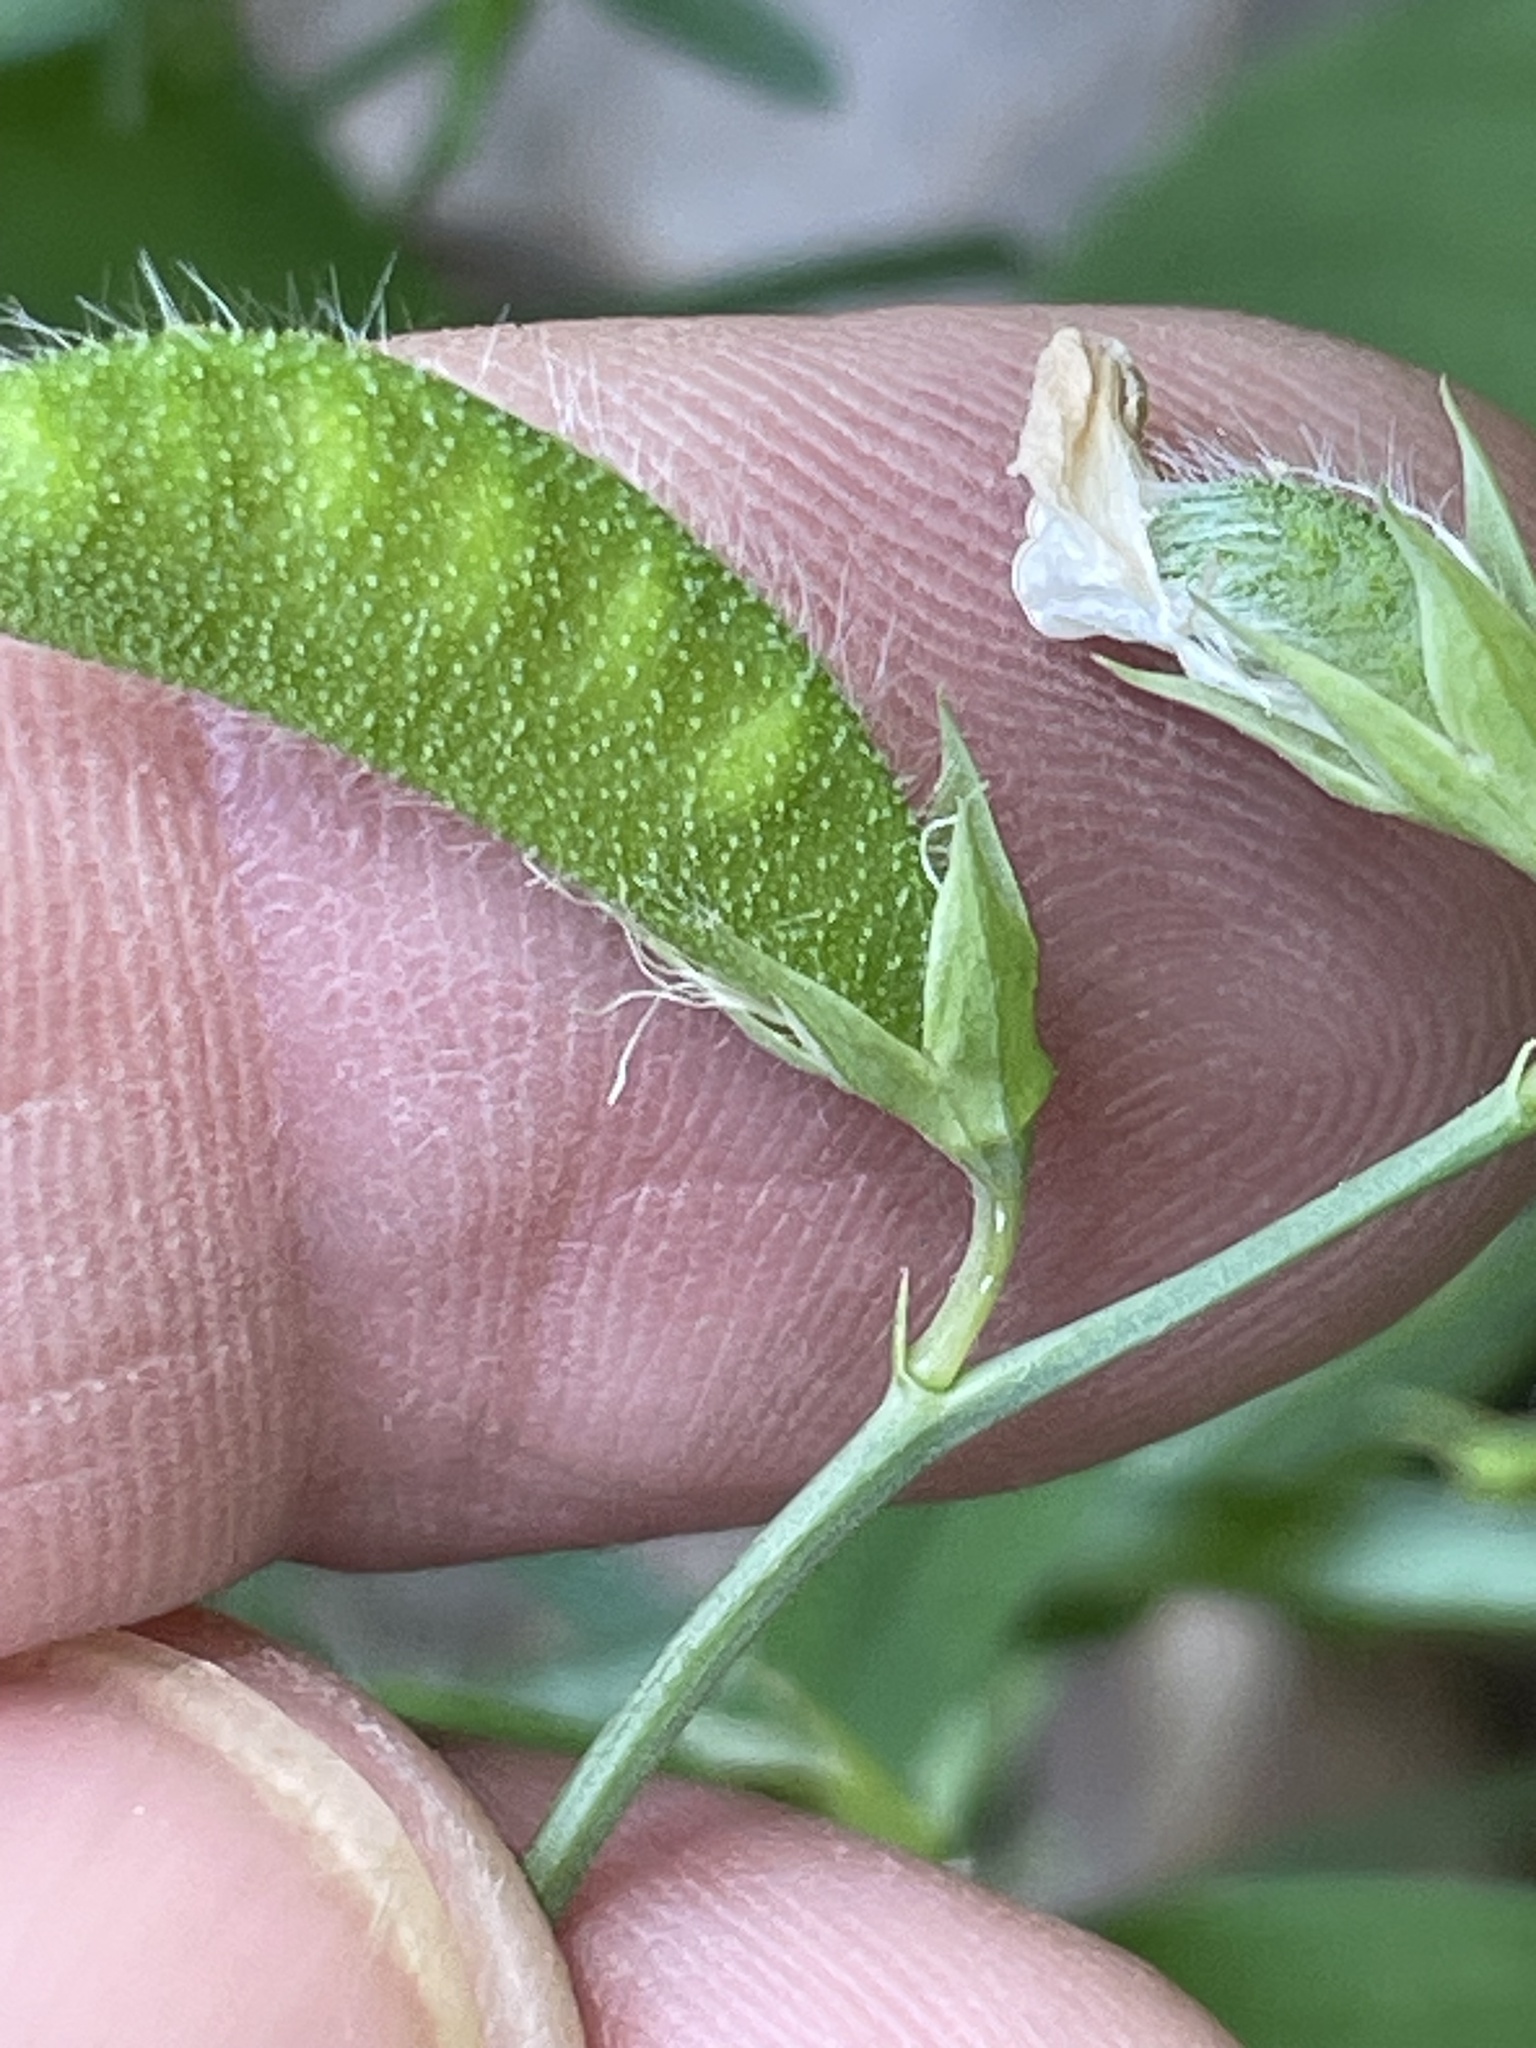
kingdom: Plantae
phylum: Tracheophyta
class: Magnoliopsida
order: Fabales
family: Fabaceae
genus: Lathyrus
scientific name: Lathyrus hirsutus
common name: Hairy vetchling
